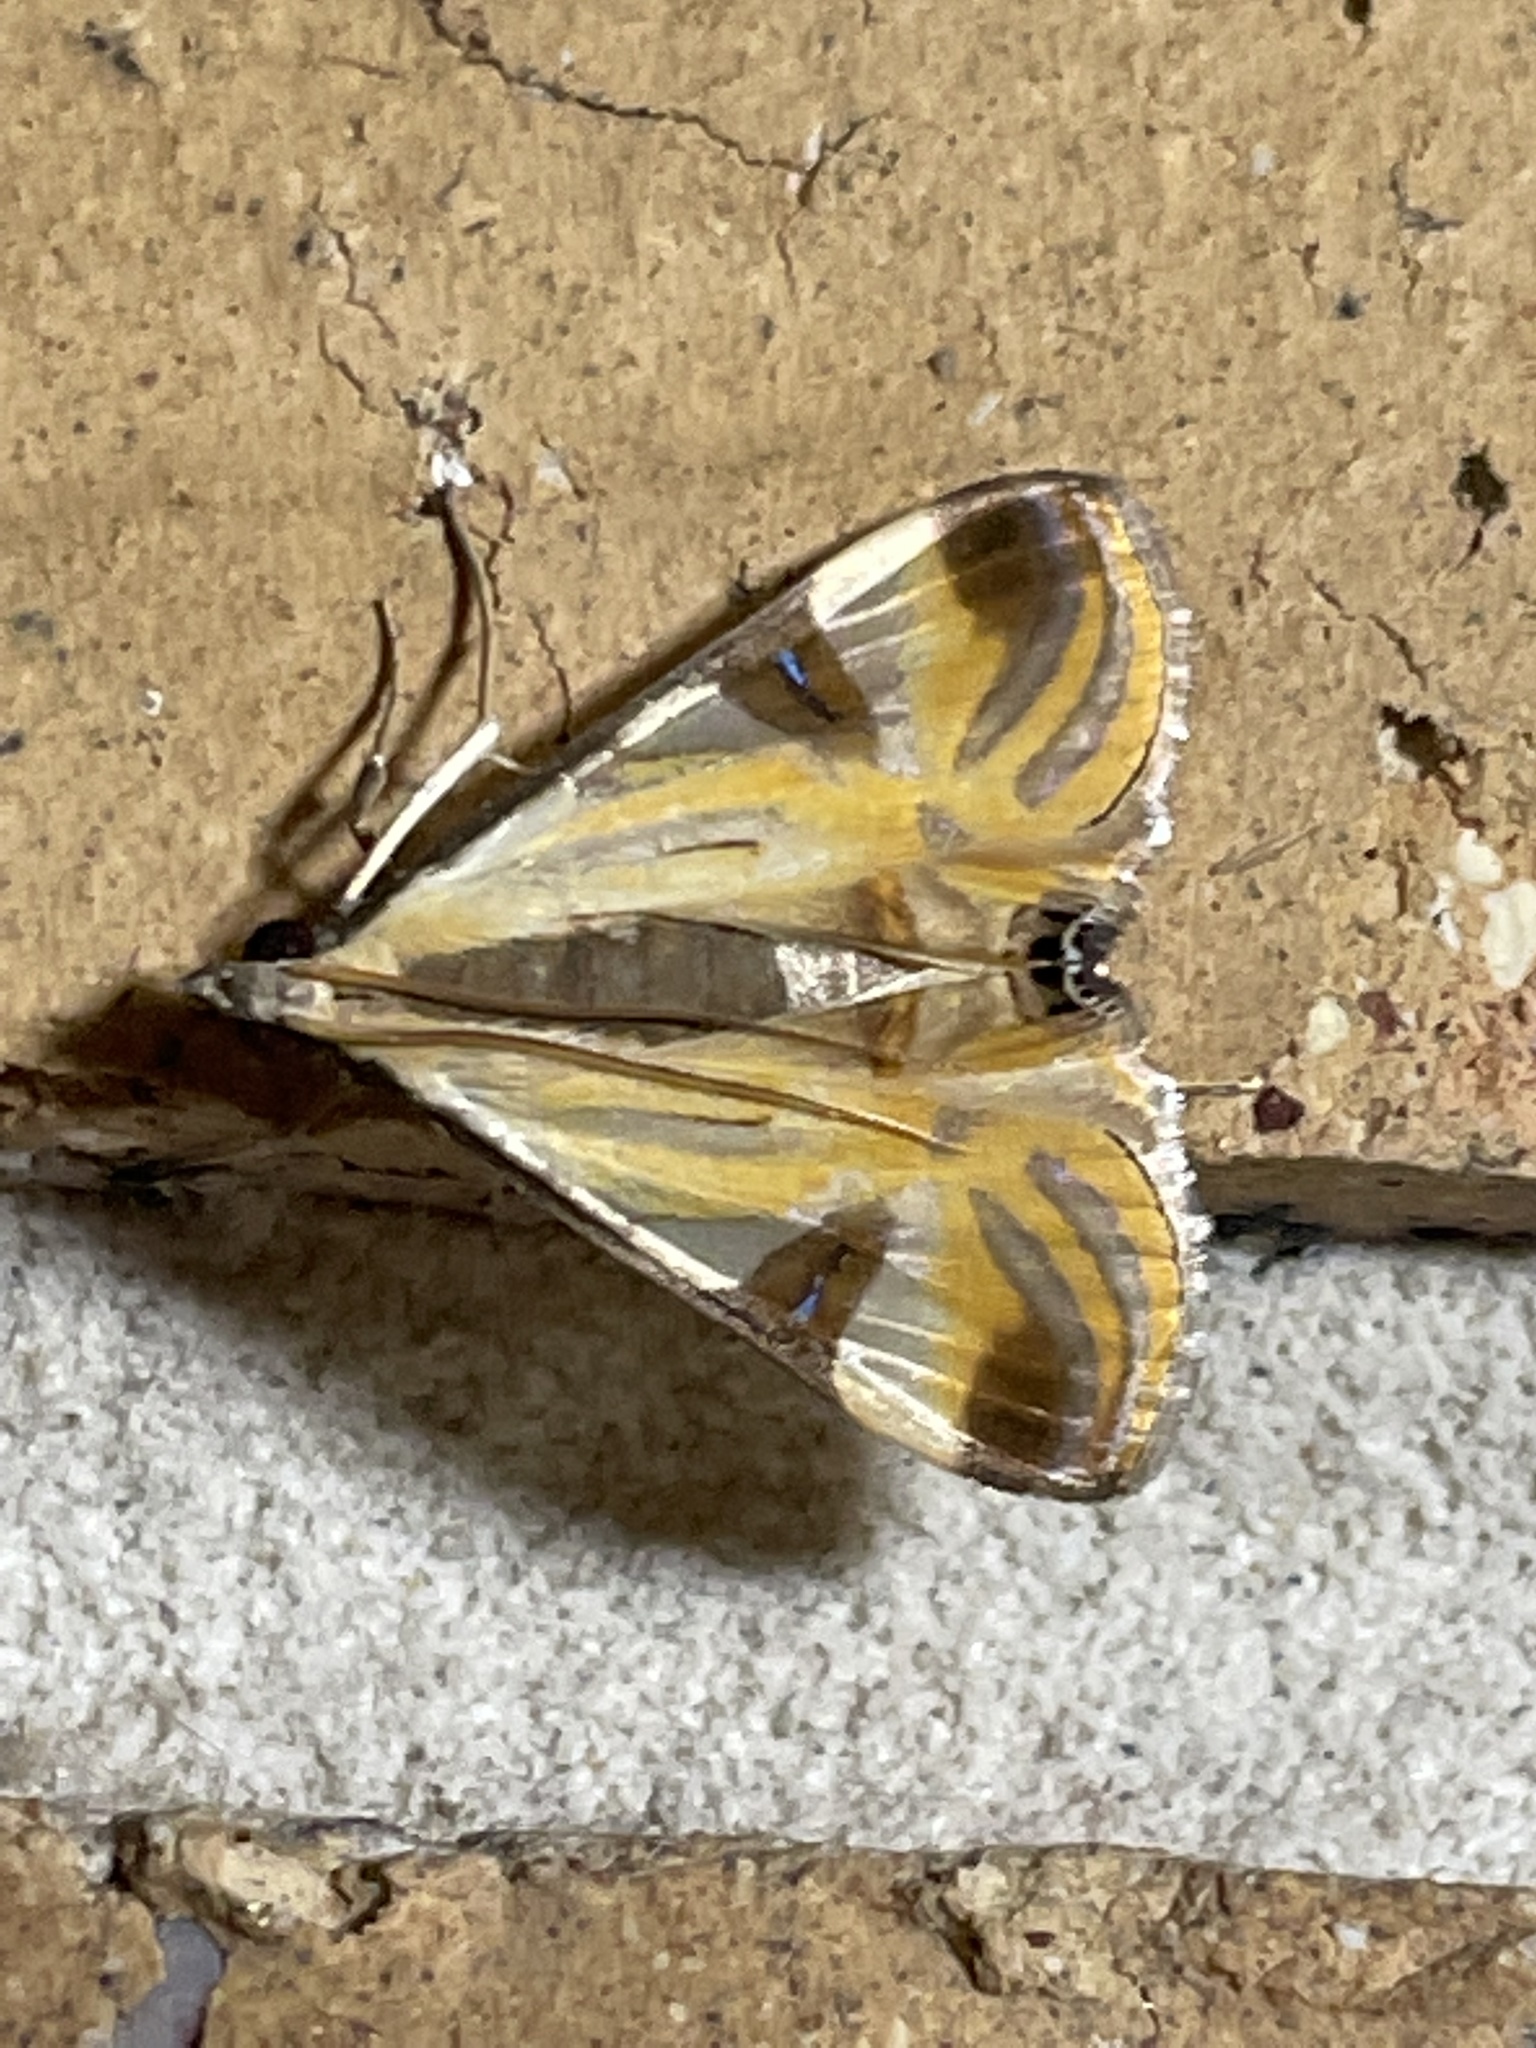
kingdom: Animalia
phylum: Arthropoda
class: Insecta
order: Lepidoptera
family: Crambidae
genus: Talanga
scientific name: Talanga tolumnialis
